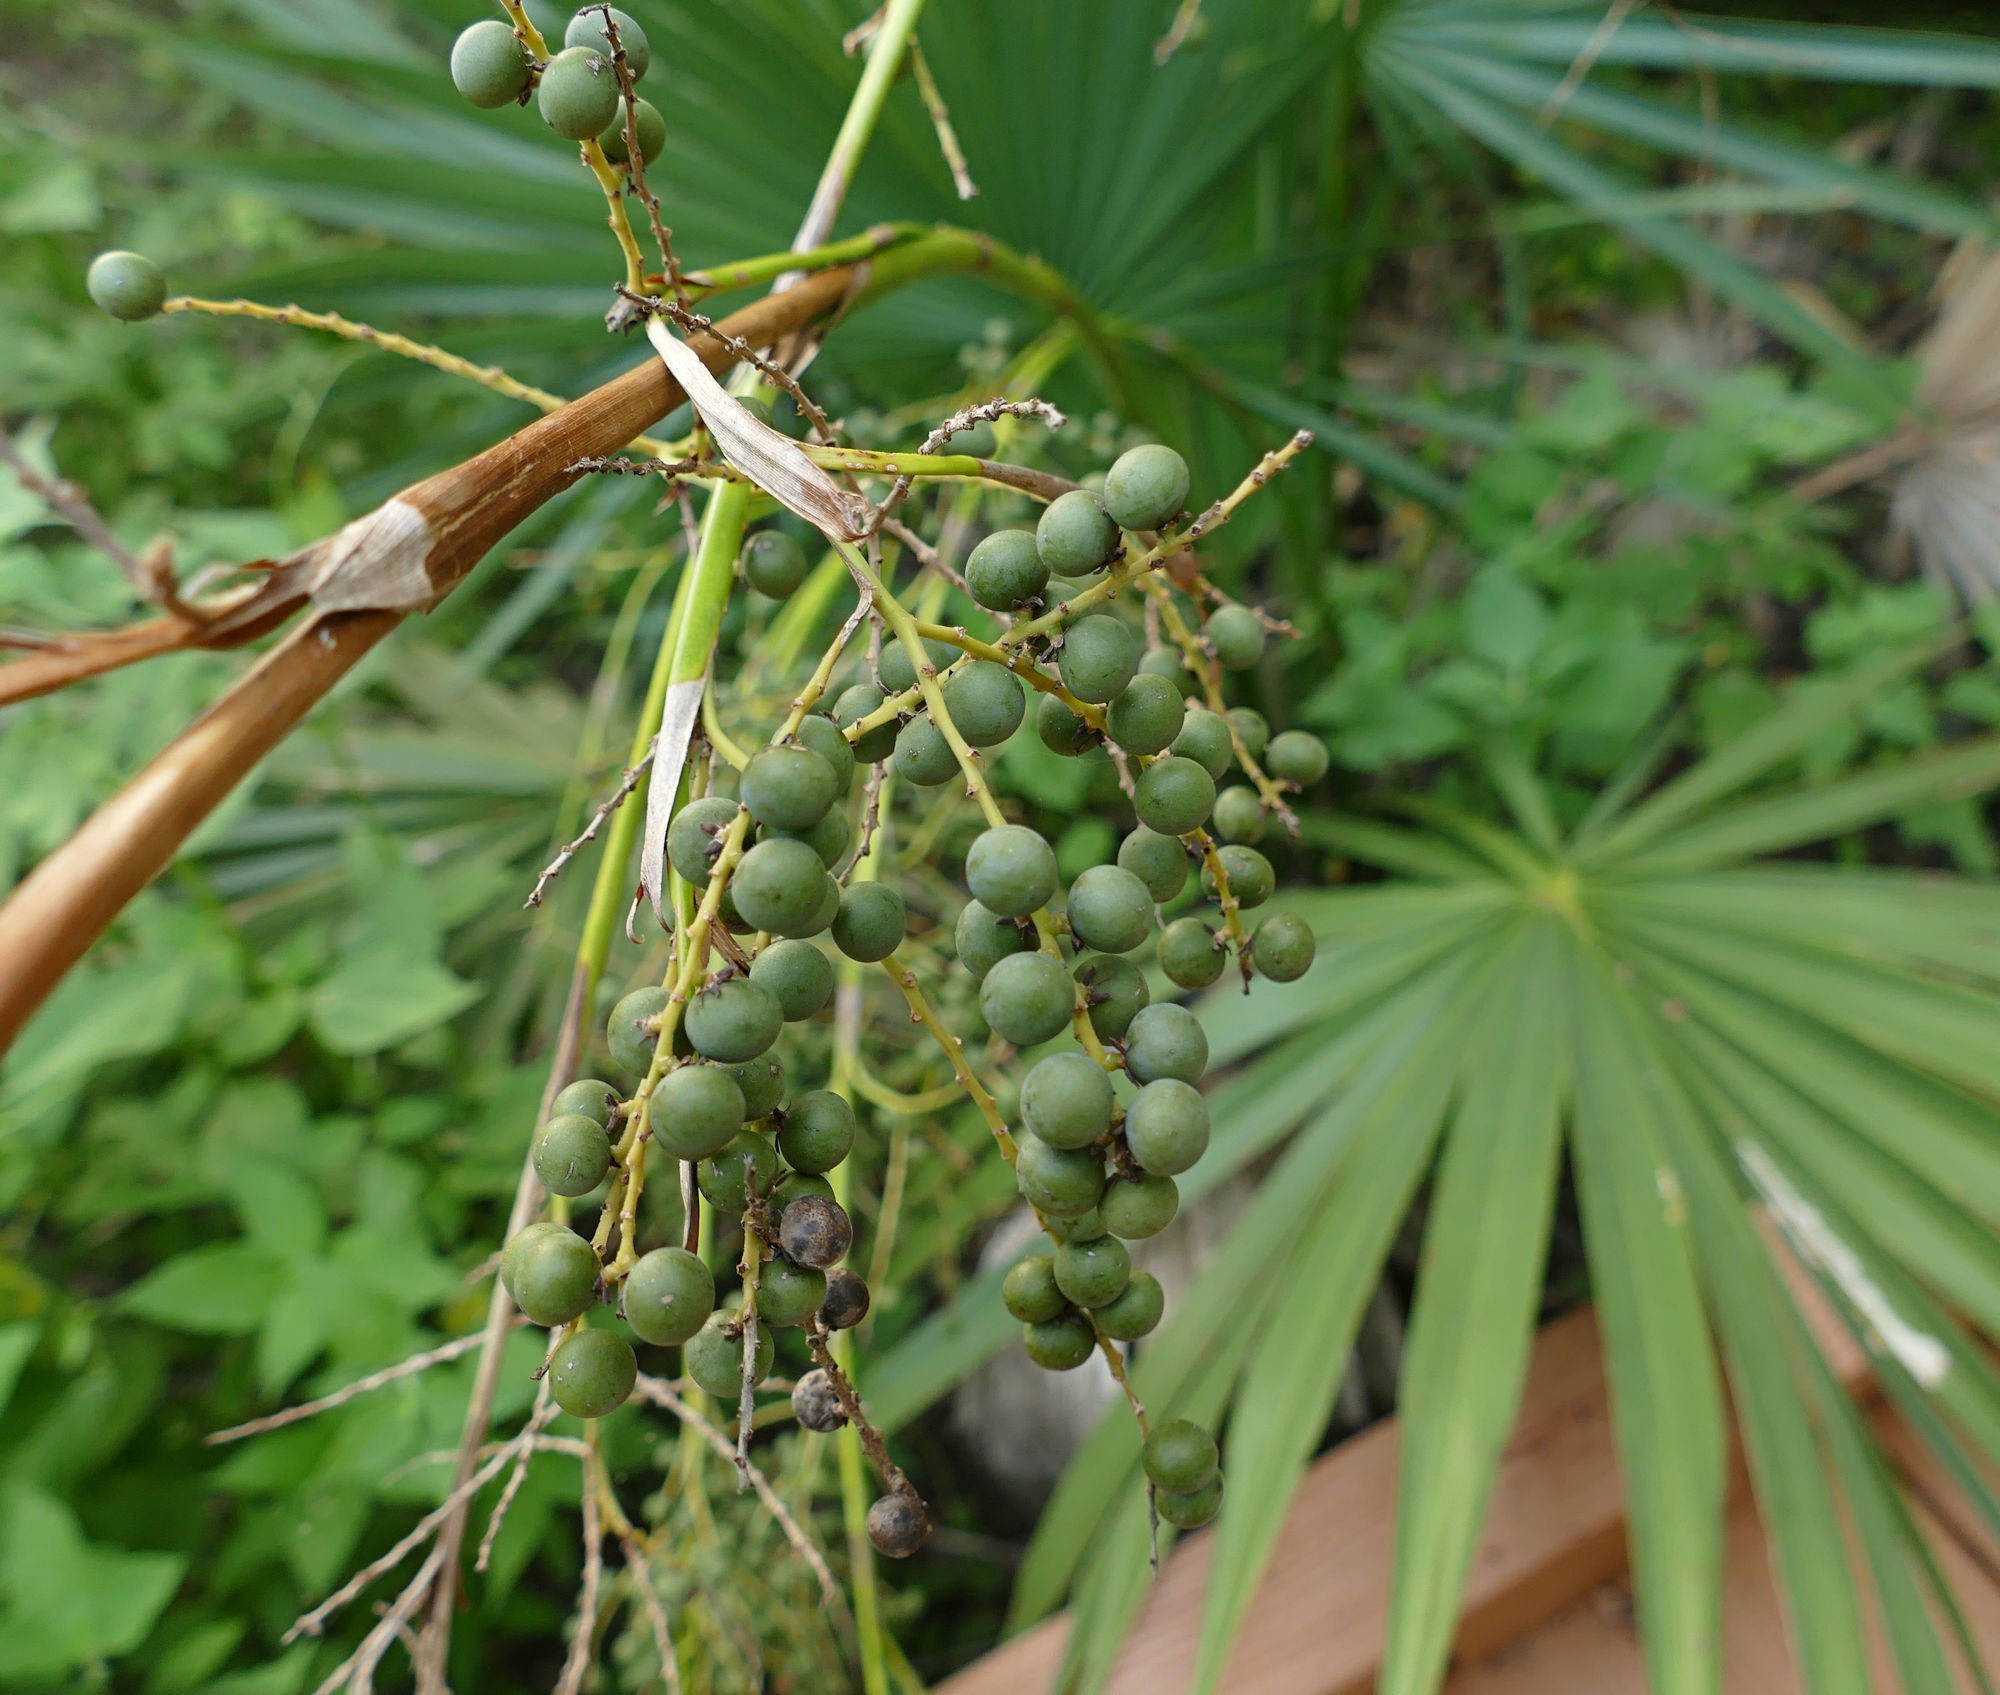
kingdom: Plantae
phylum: Tracheophyta
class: Liliopsida
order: Arecales
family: Arecaceae
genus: Sabal
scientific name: Sabal minor
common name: Dwarf palmetto
